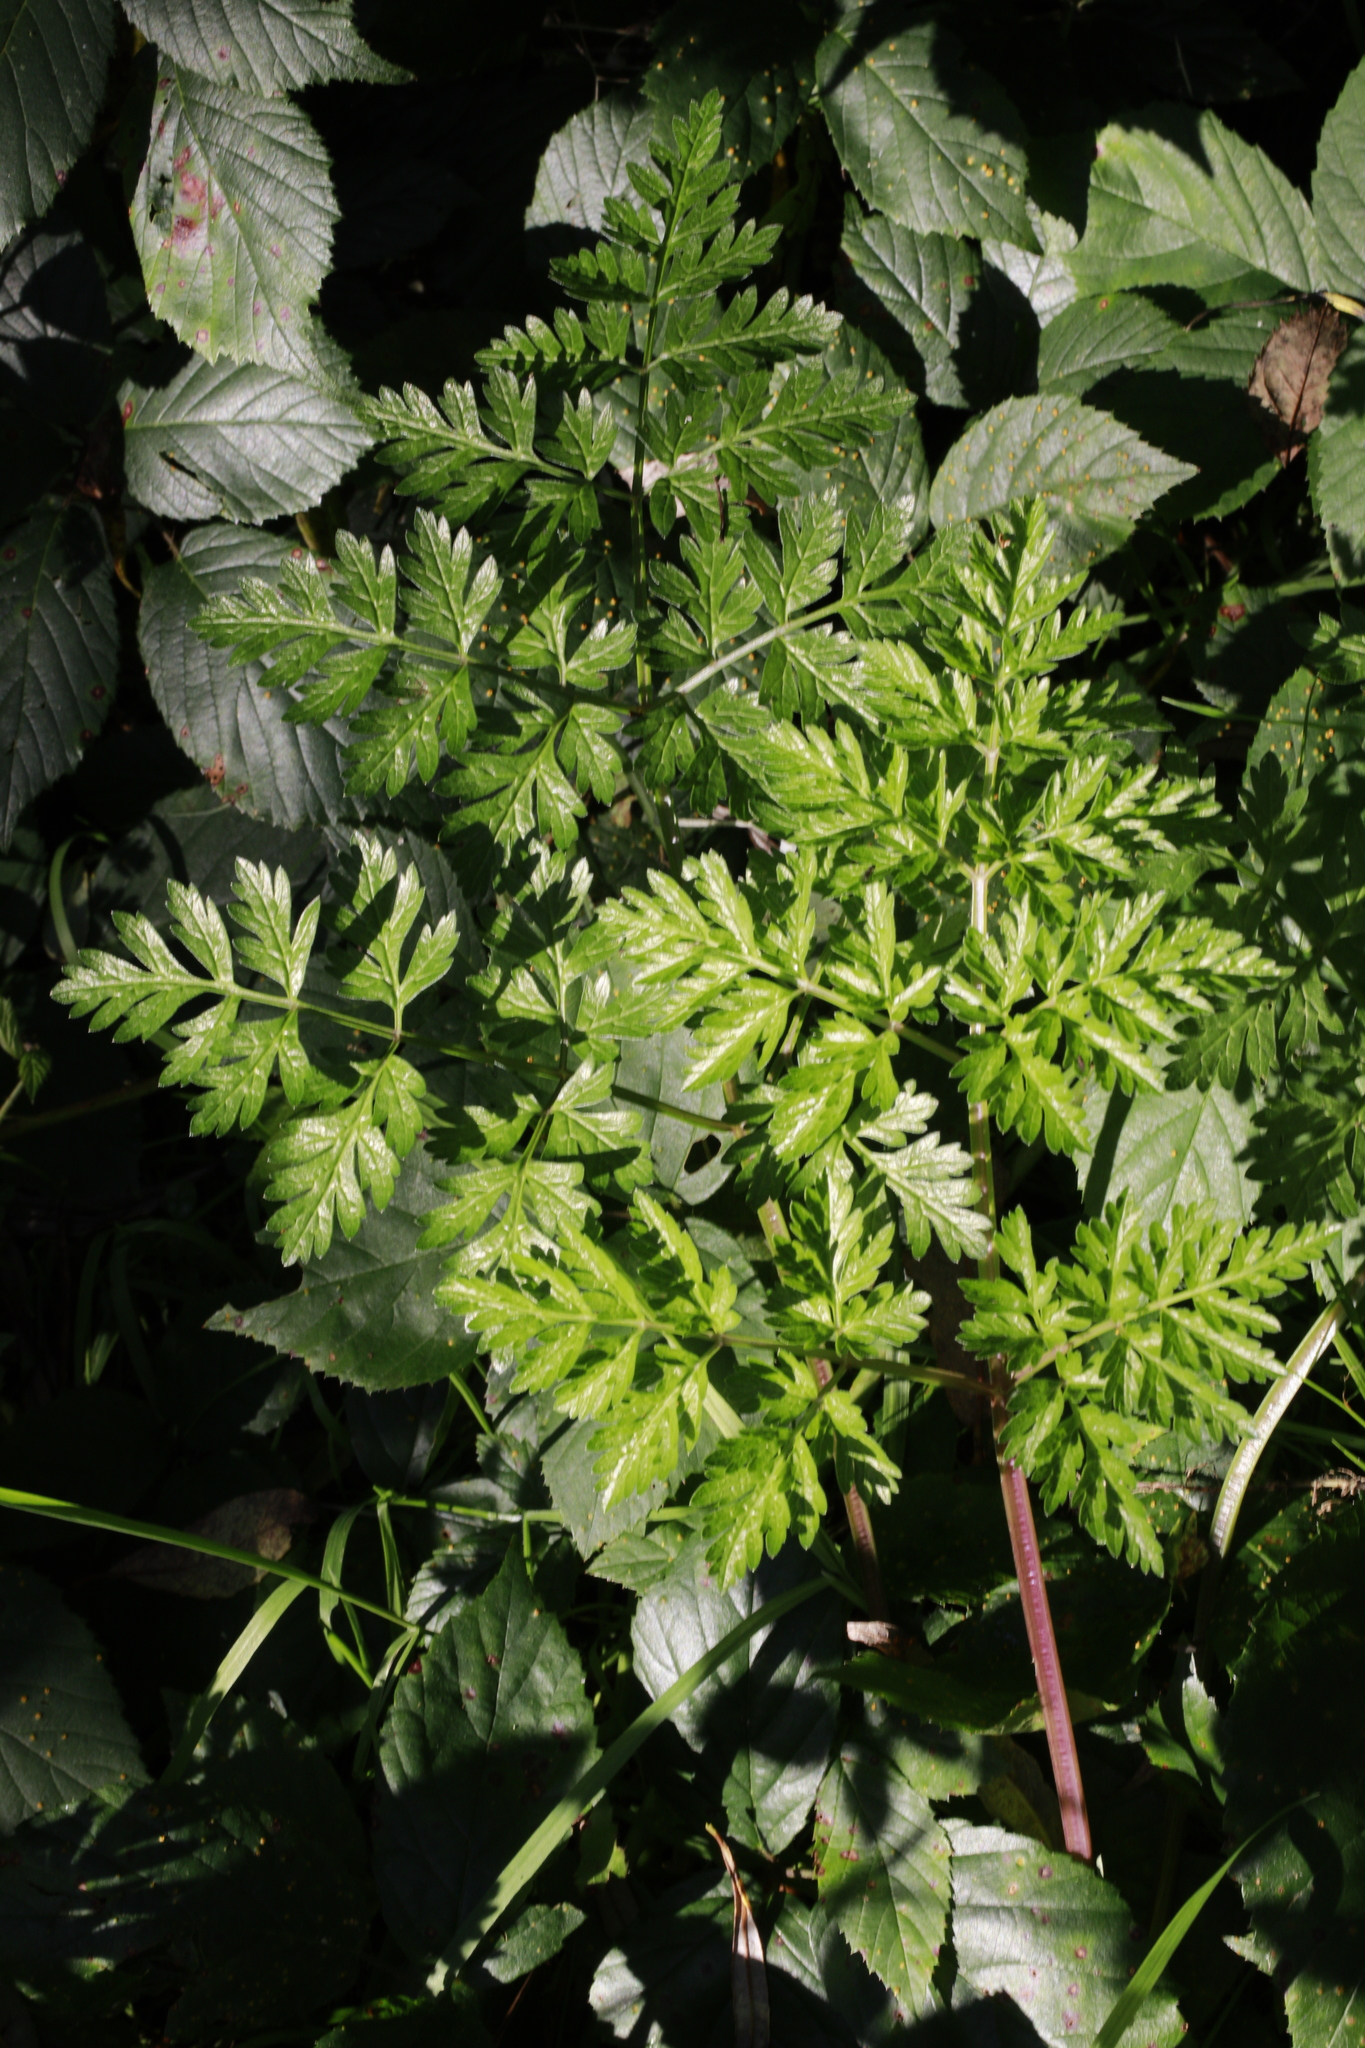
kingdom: Plantae
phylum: Tracheophyta
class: Magnoliopsida
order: Apiales
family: Apiaceae
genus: Anthriscus
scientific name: Anthriscus sylvestris
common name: Cow parsley
